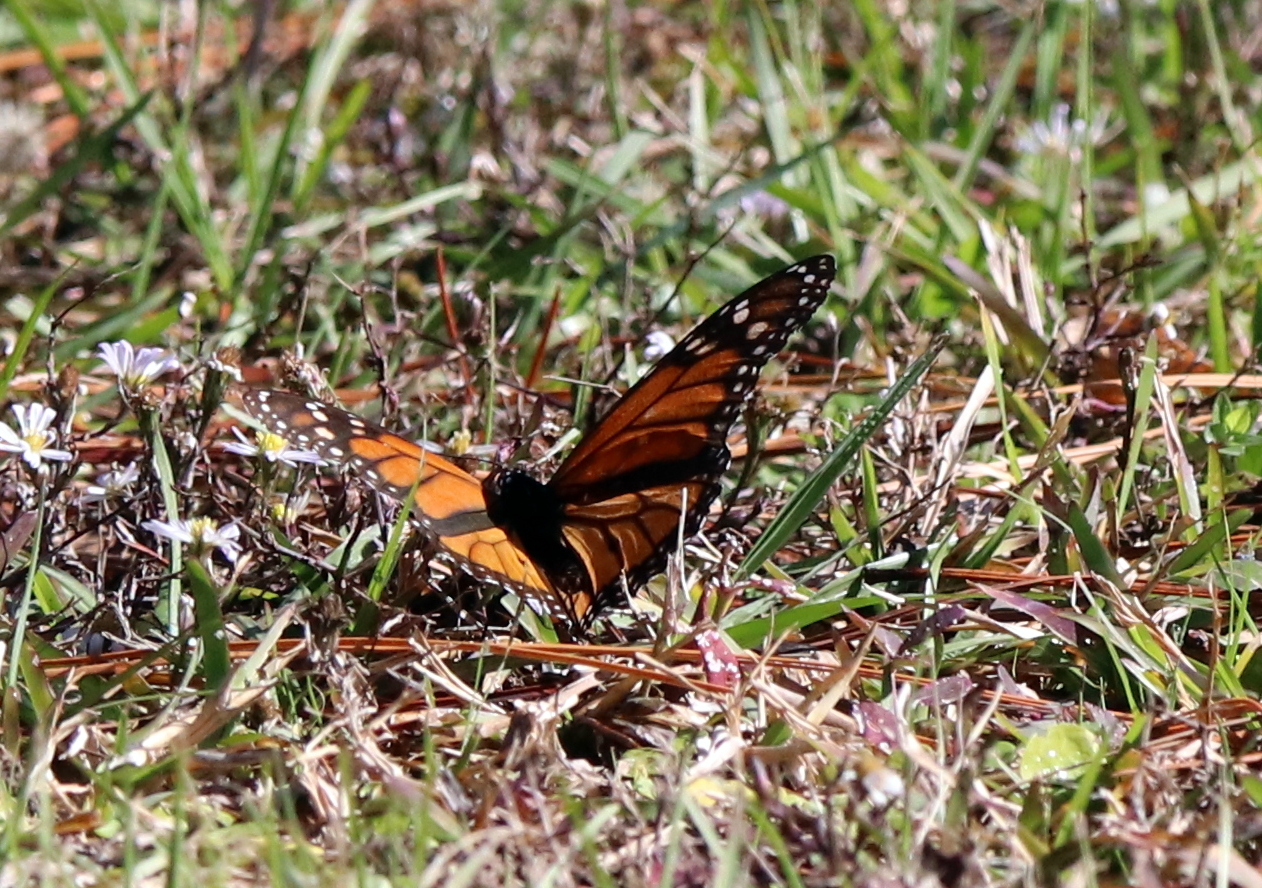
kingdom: Animalia
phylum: Arthropoda
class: Insecta
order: Lepidoptera
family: Nymphalidae
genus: Danaus
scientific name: Danaus plexippus
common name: Monarch
